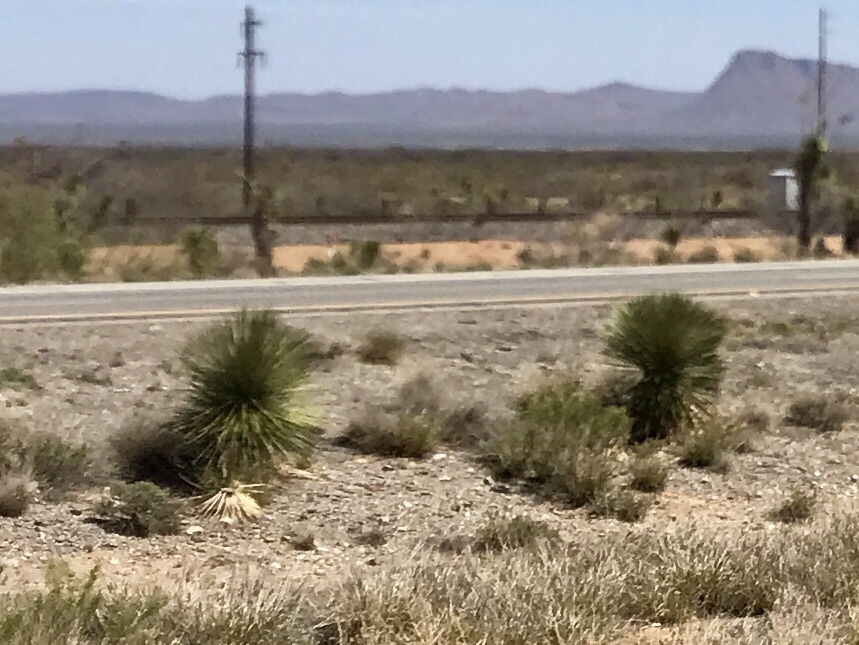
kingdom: Plantae
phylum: Tracheophyta
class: Liliopsida
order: Asparagales
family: Asparagaceae
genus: Yucca
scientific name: Yucca elata
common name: Palmella
